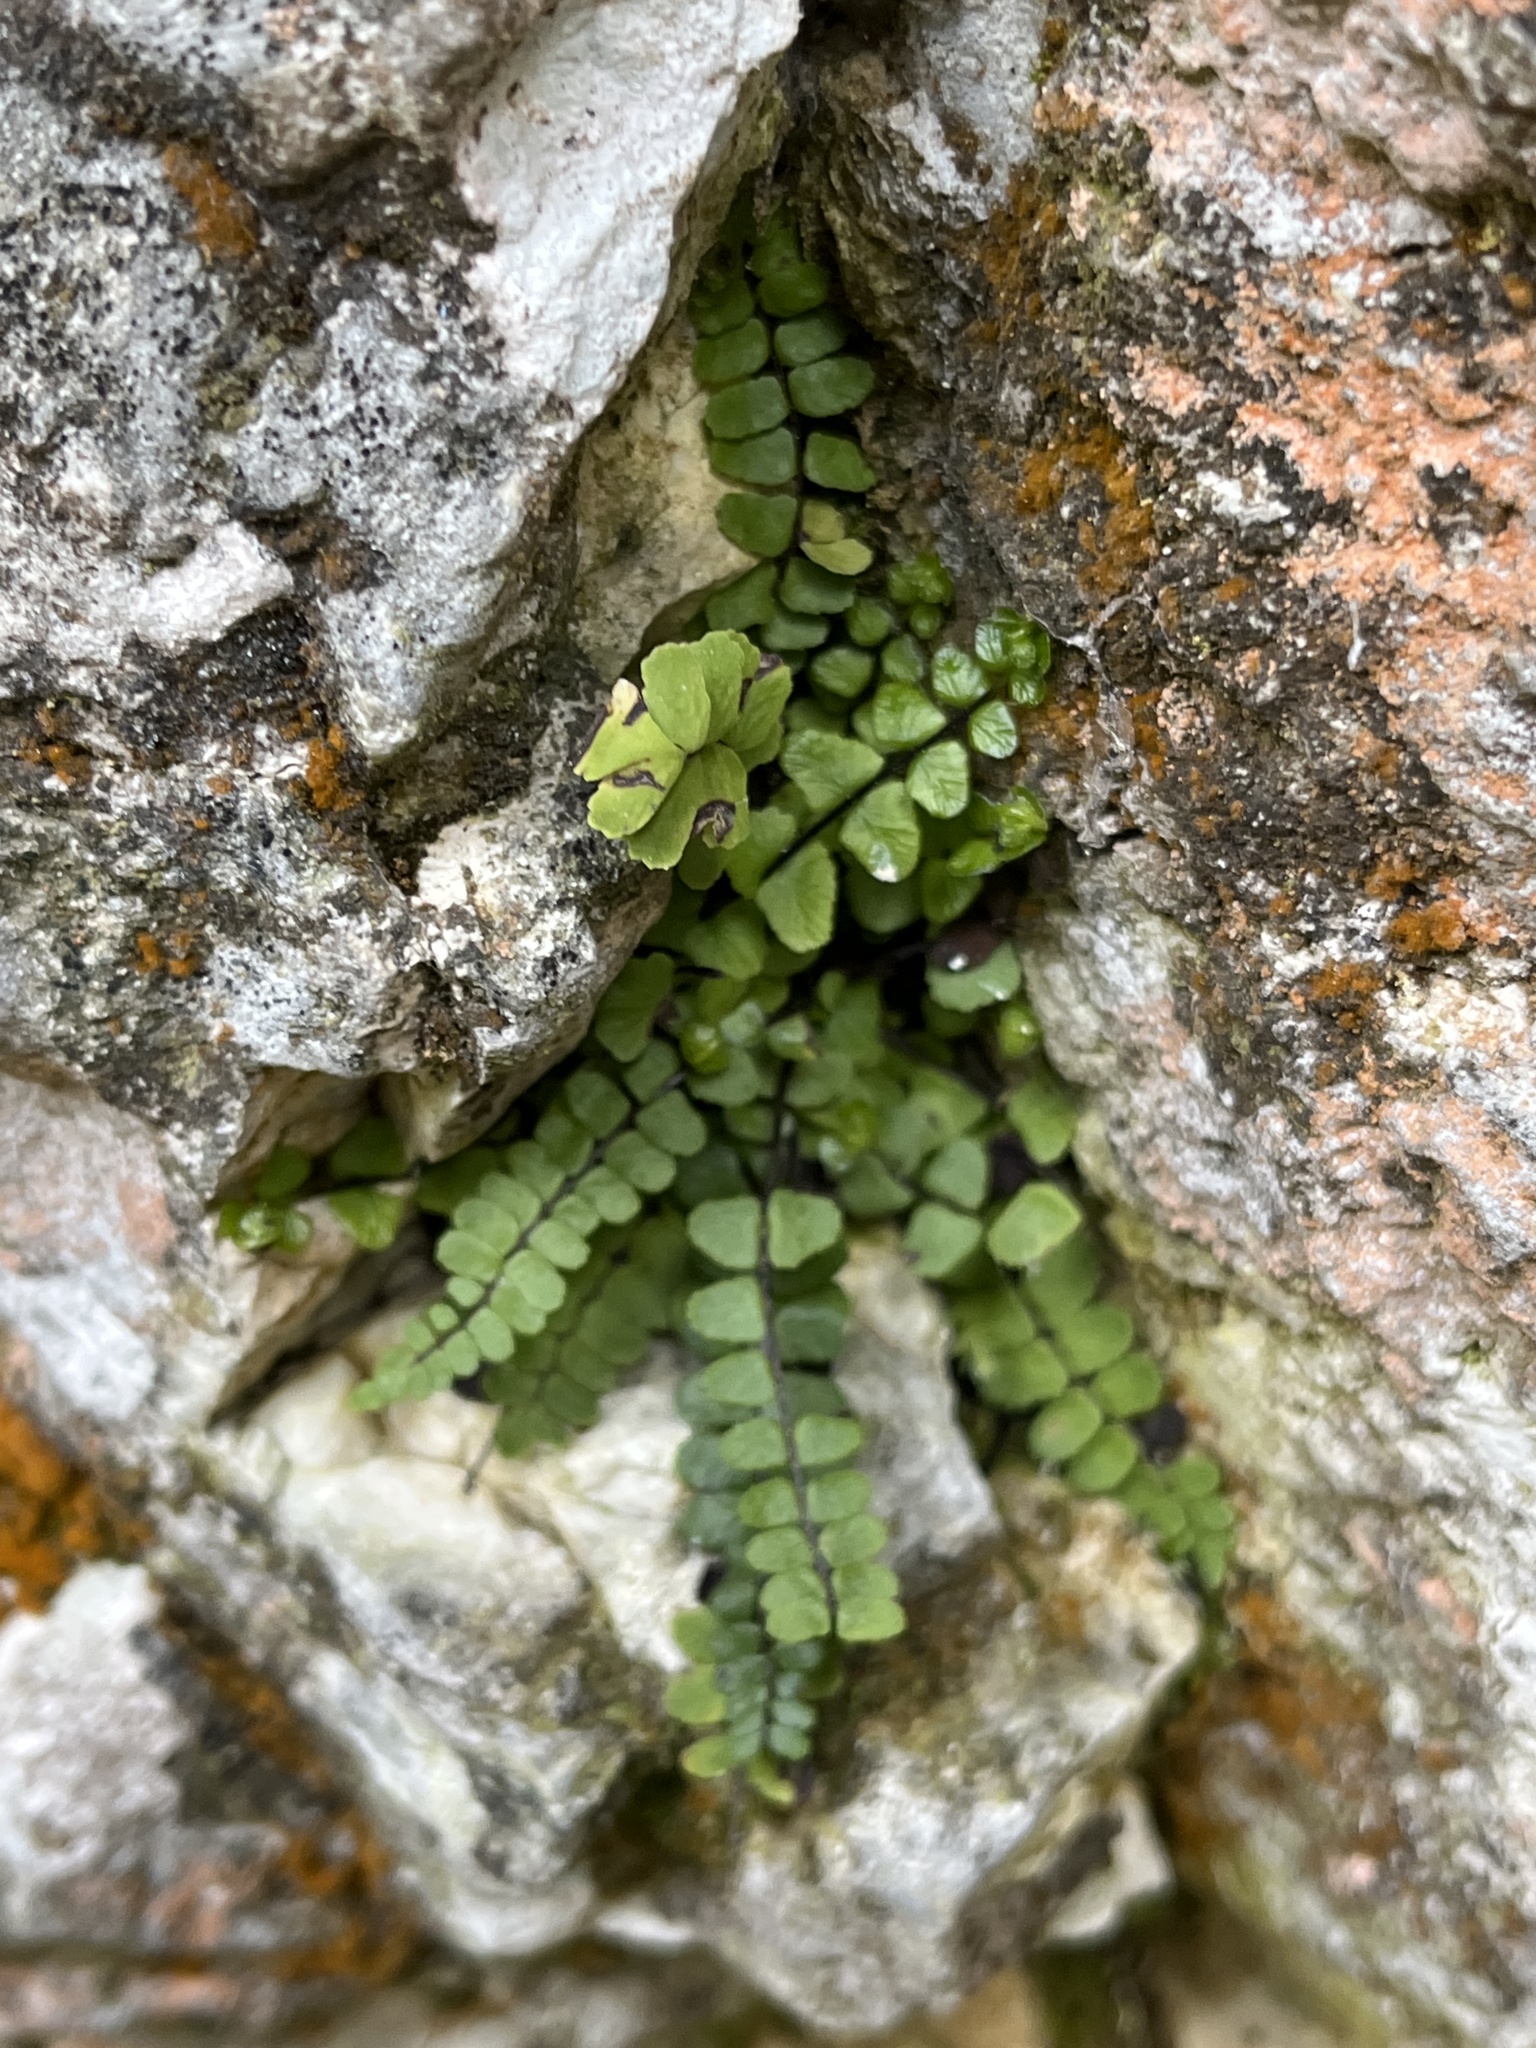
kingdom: Plantae
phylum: Tracheophyta
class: Polypodiopsida
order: Polypodiales
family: Aspleniaceae
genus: Asplenium
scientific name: Asplenium trichomanes
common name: Maidenhair spleenwort
